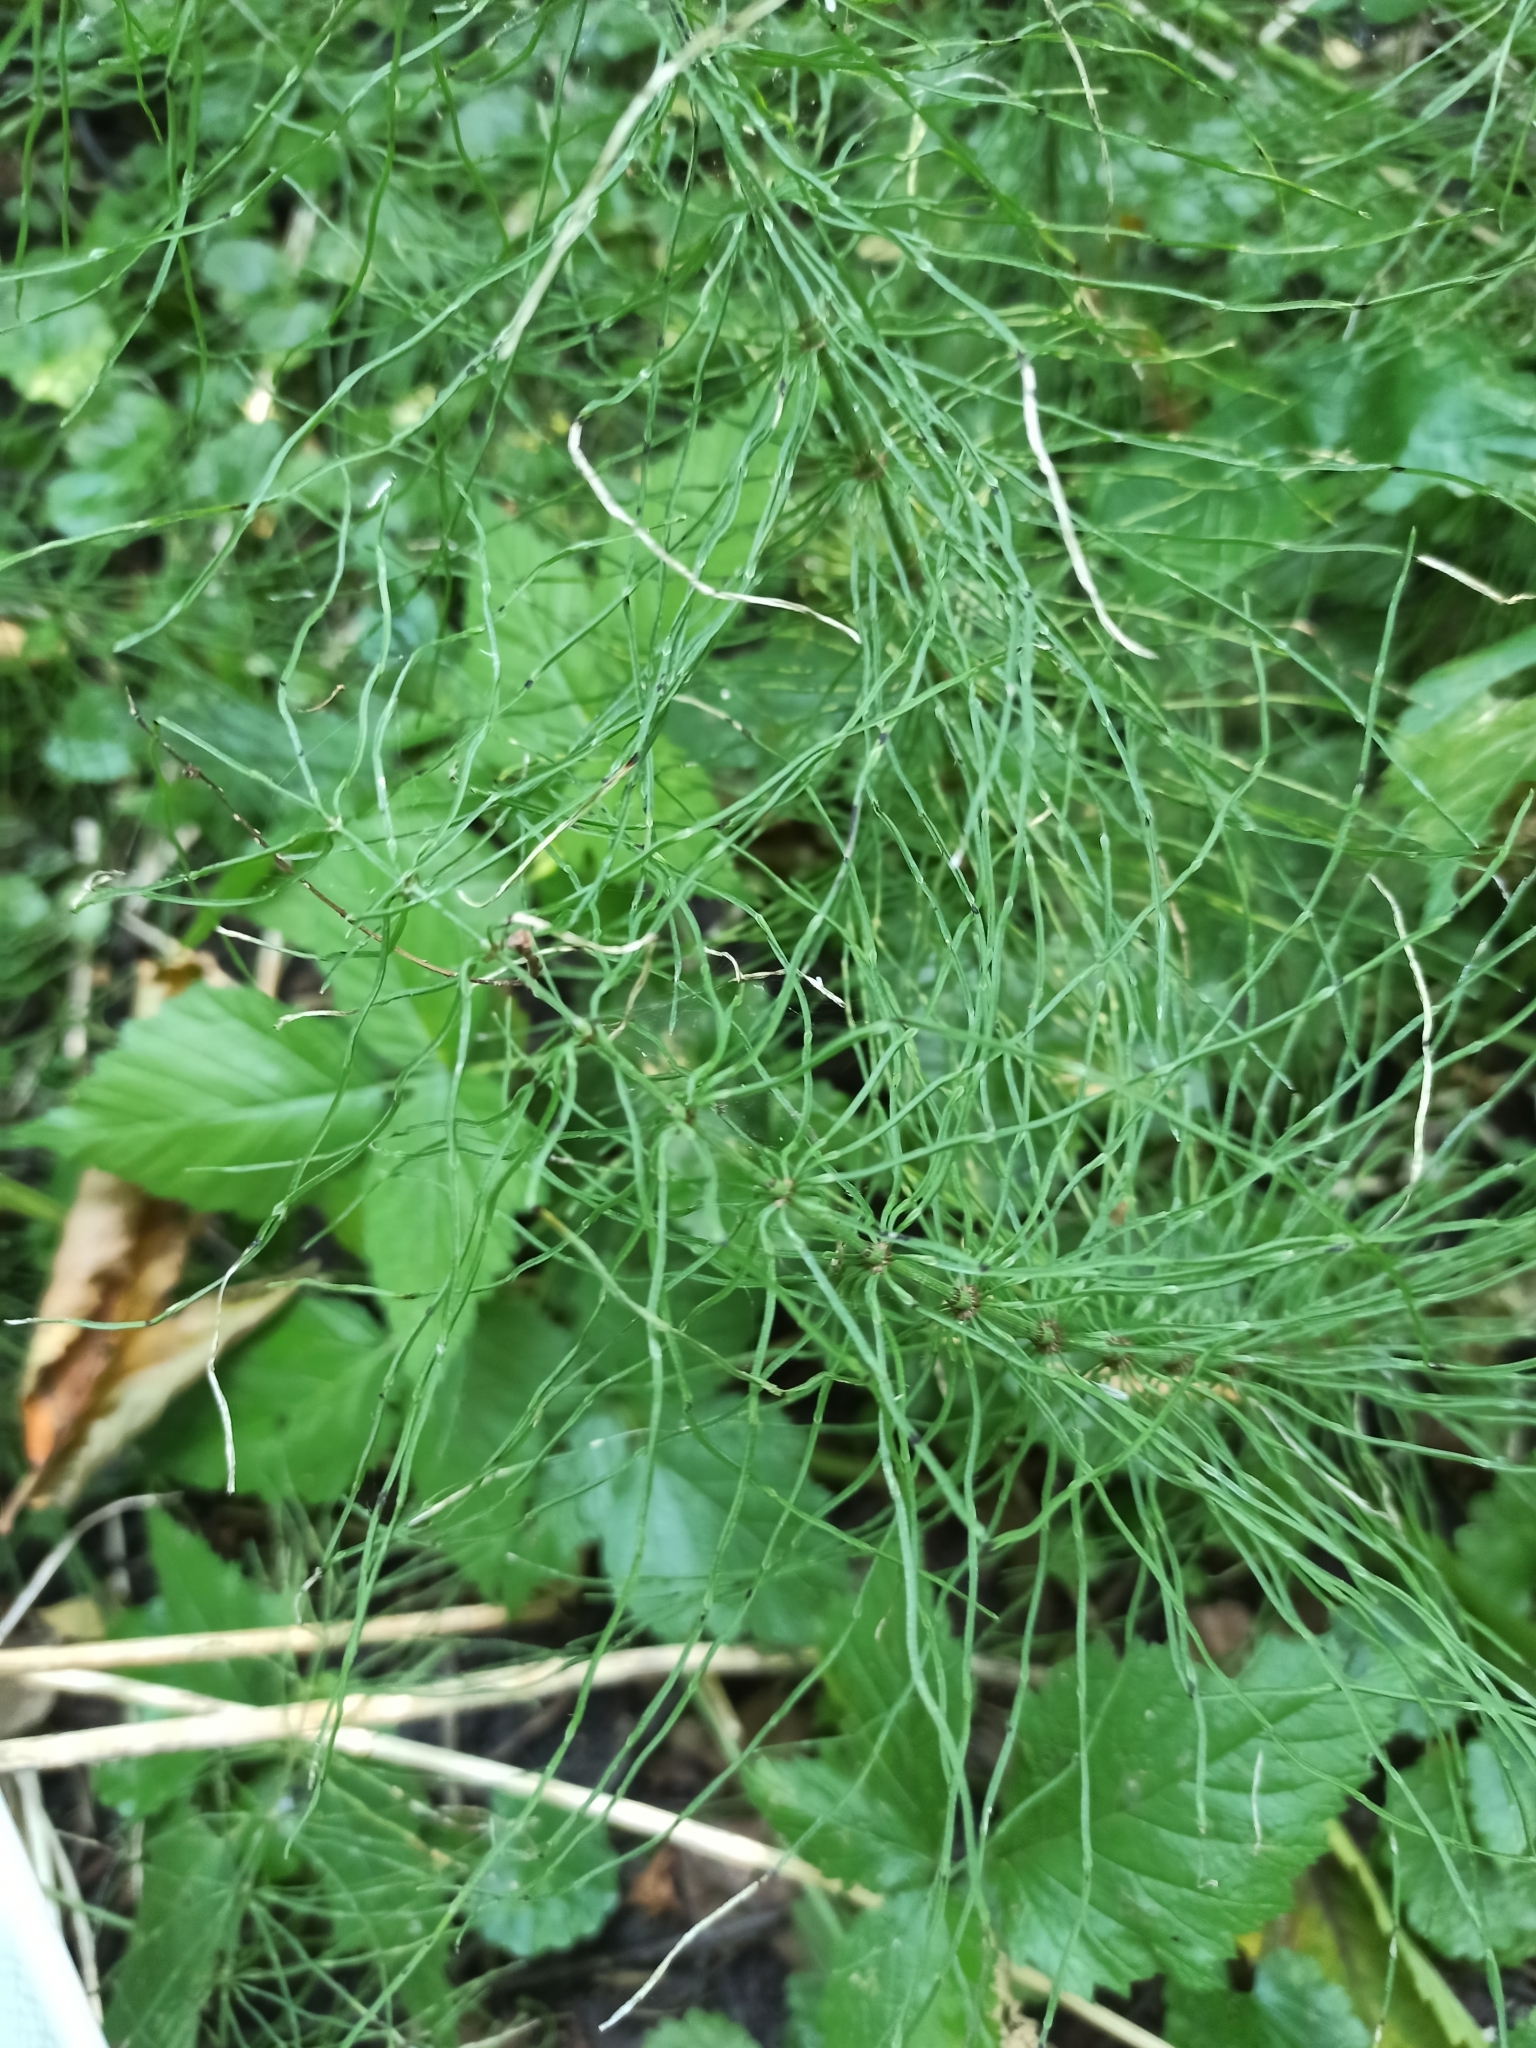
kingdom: Plantae
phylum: Tracheophyta
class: Polypodiopsida
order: Equisetales
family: Equisetaceae
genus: Equisetum
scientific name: Equisetum pratense
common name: Meadow horsetail
